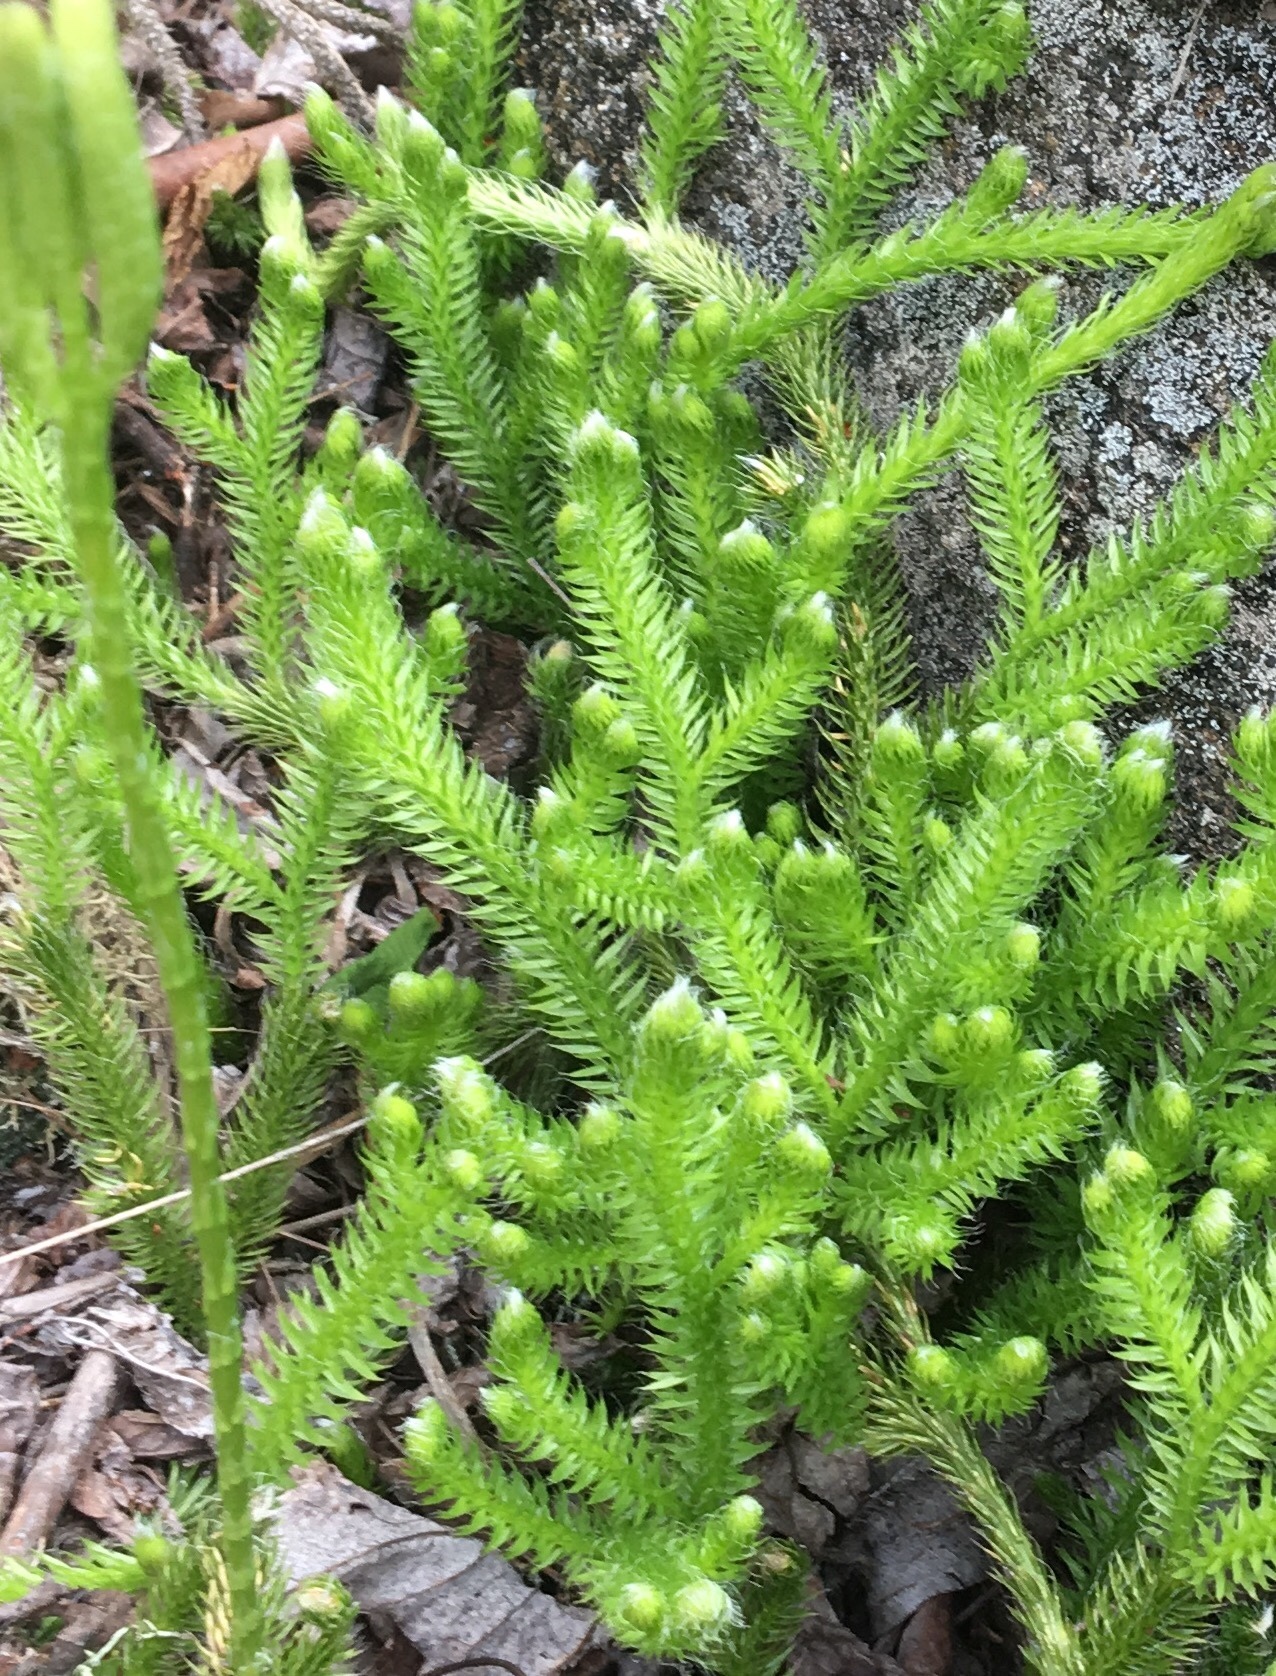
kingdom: Plantae
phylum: Tracheophyta
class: Lycopodiopsida
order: Lycopodiales
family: Lycopodiaceae
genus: Lycopodium
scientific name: Lycopodium clavatum
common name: Stag's-horn clubmoss
